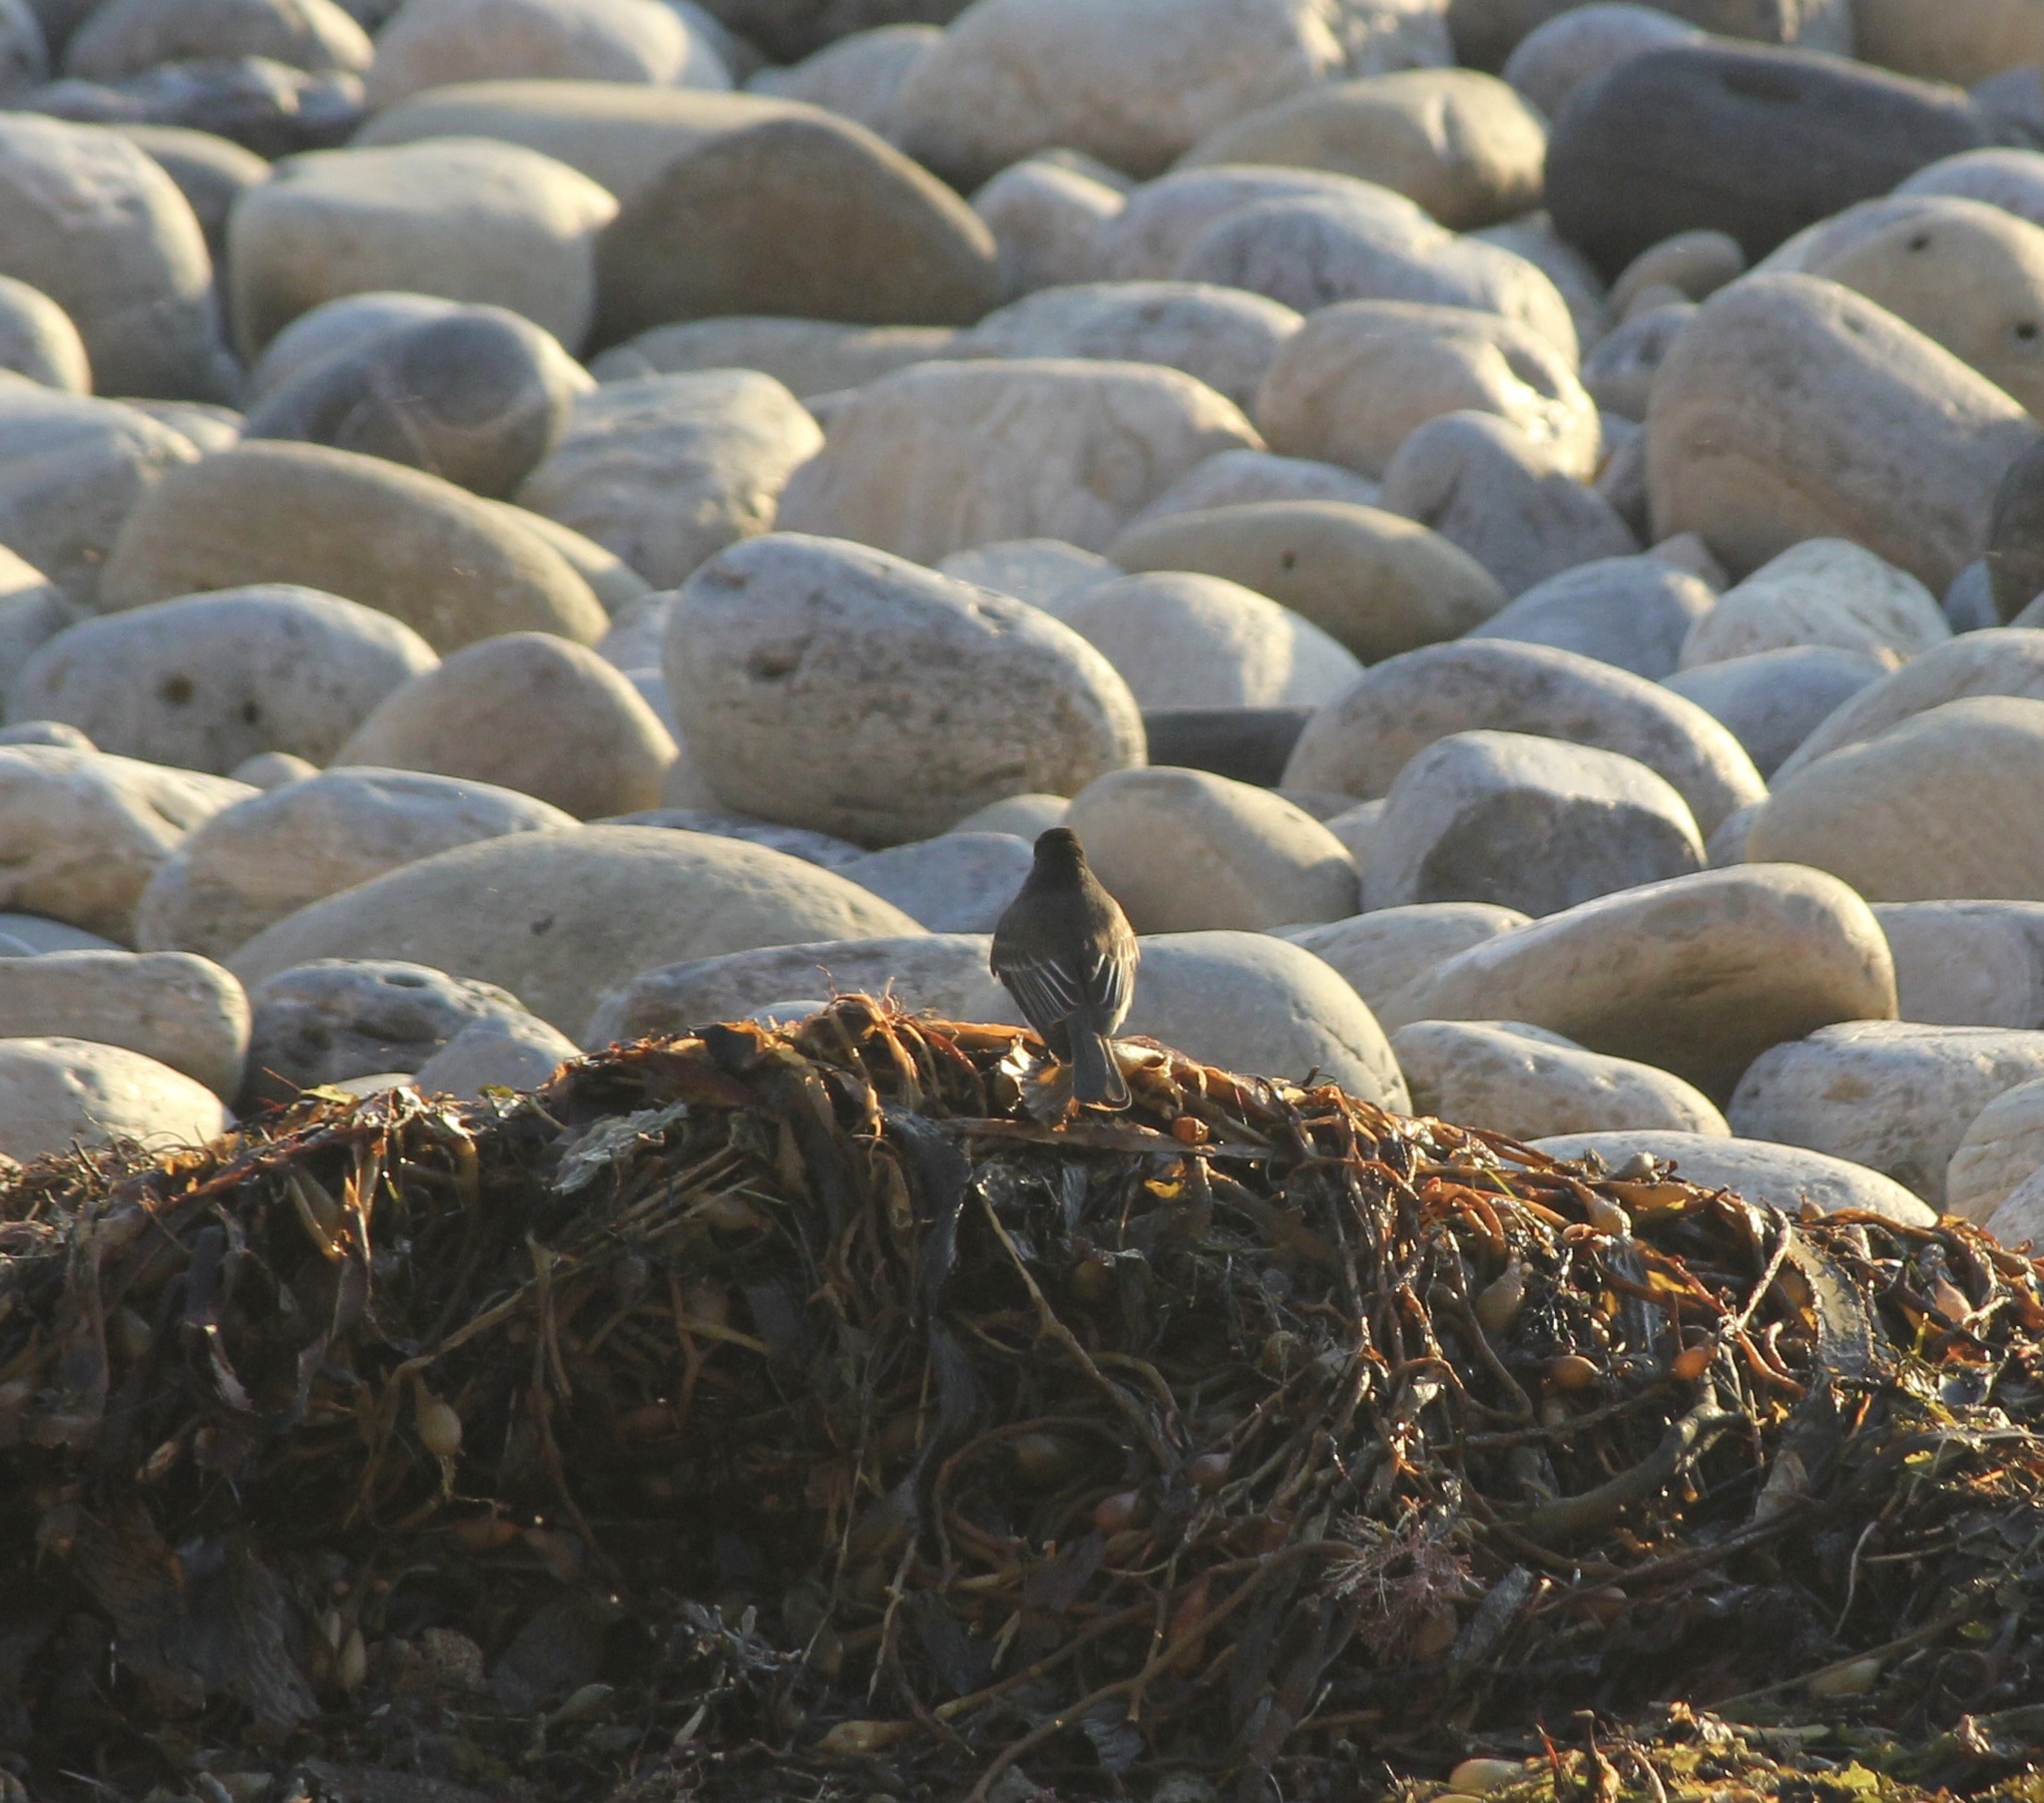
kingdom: Animalia
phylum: Chordata
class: Aves
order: Passeriformes
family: Tyrannidae
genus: Sayornis
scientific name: Sayornis nigricans
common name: Black phoebe
